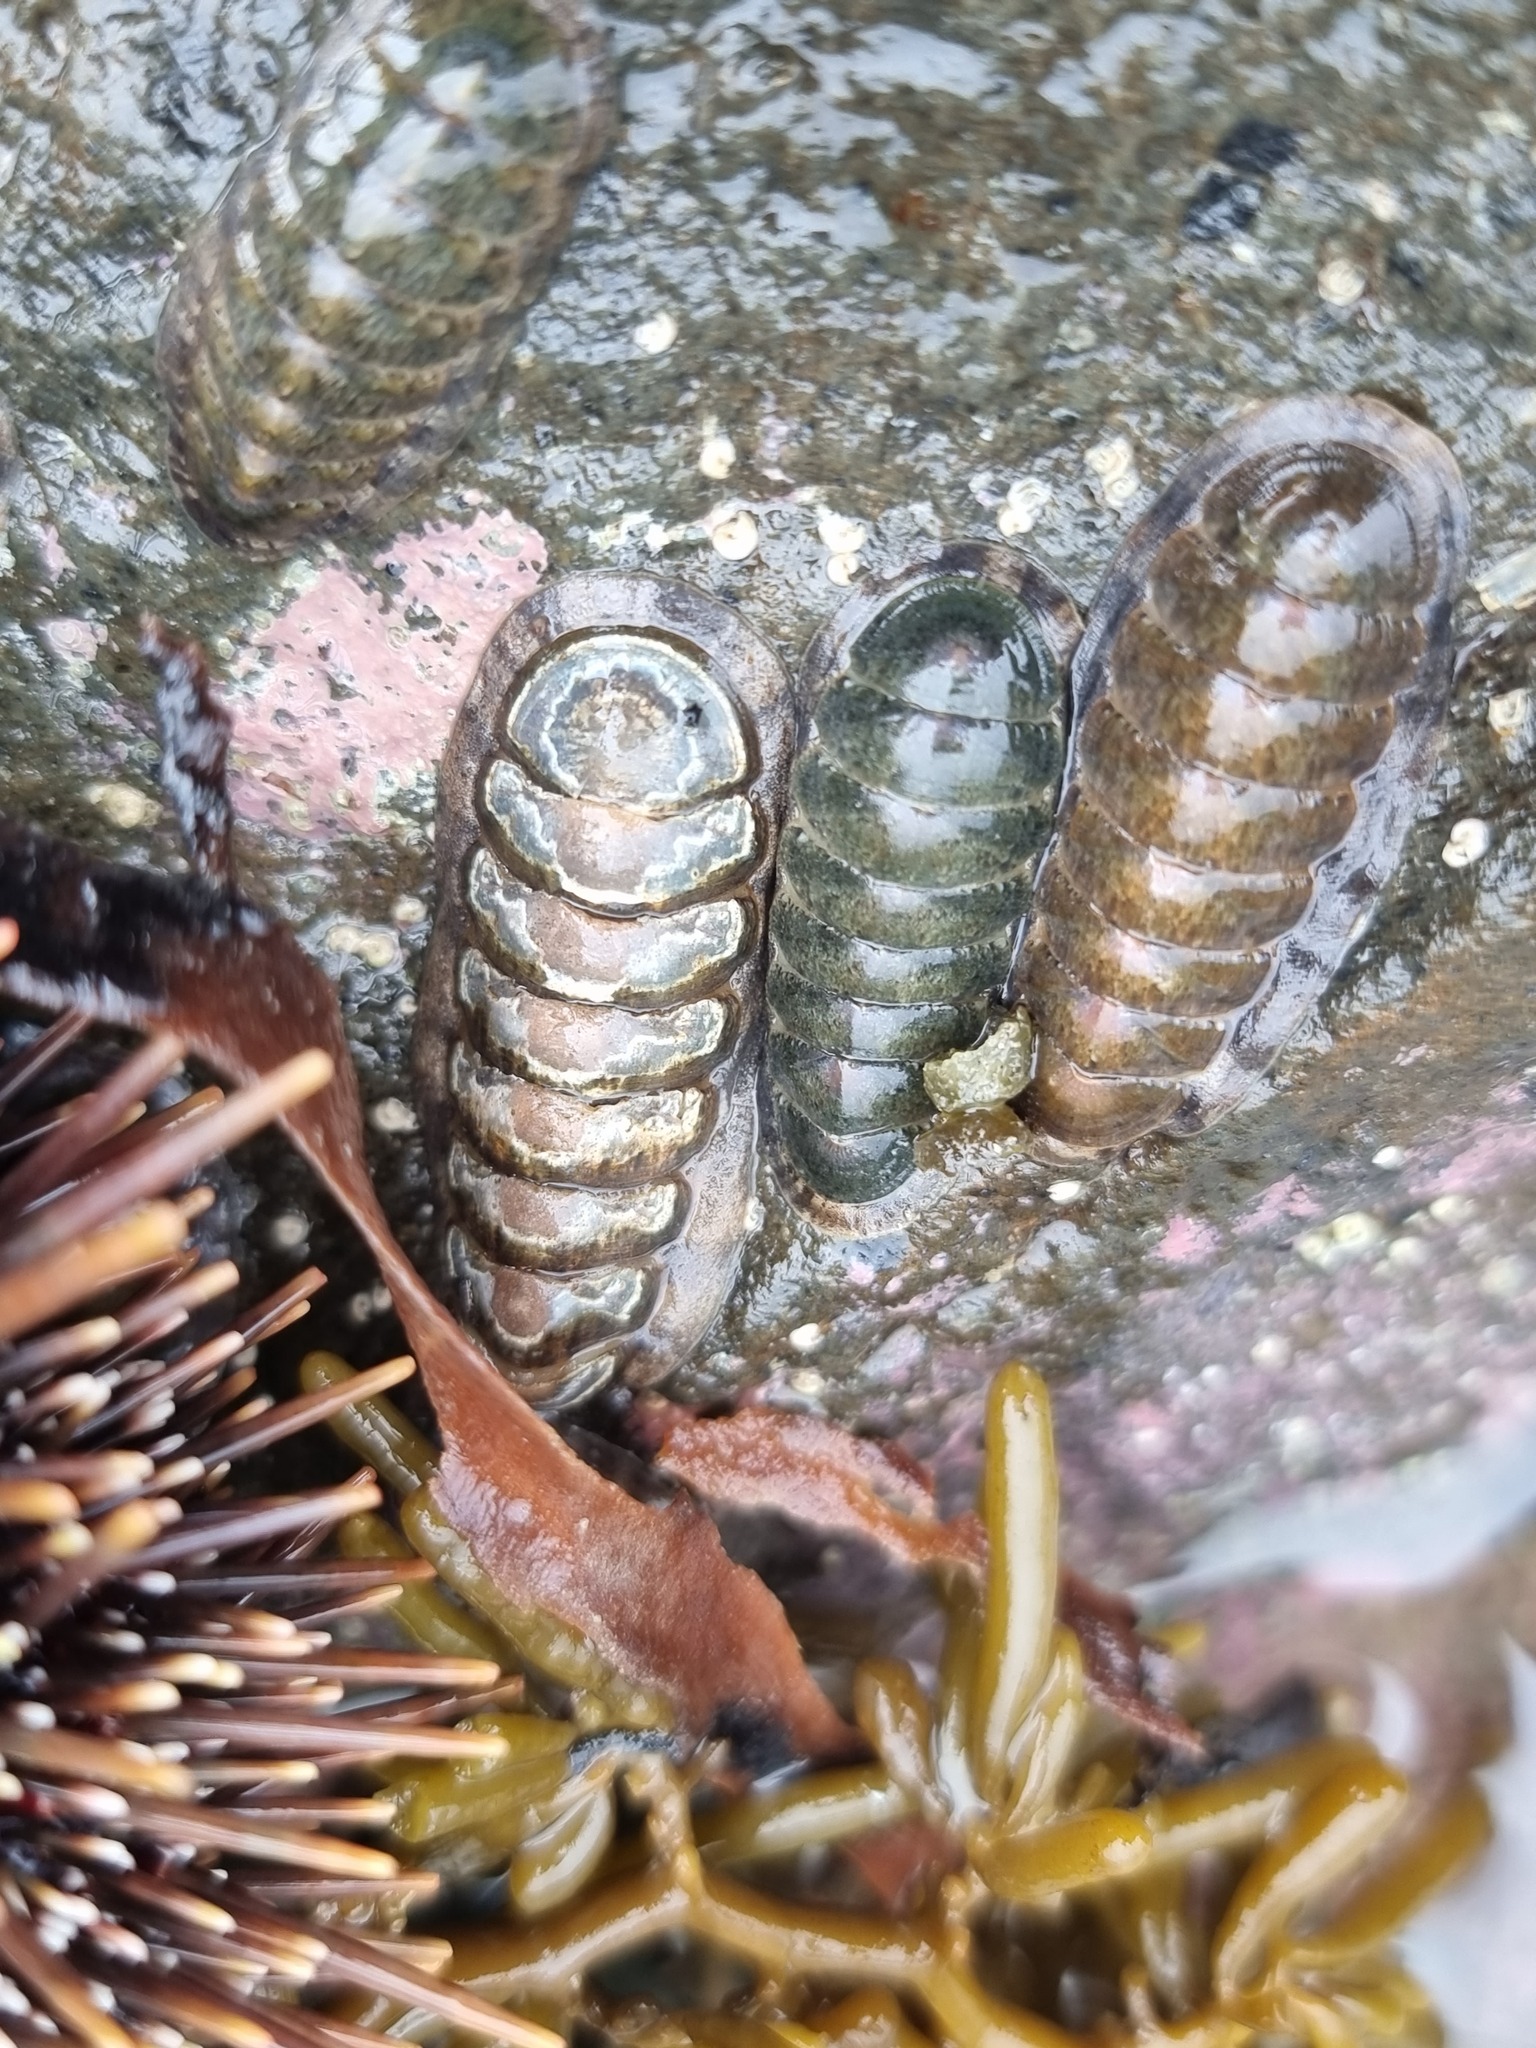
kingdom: Animalia
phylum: Mollusca
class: Polyplacophora
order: Chitonida
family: Ischnochitonidae
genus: Ischnochiton
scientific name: Ischnochiton maorianus
